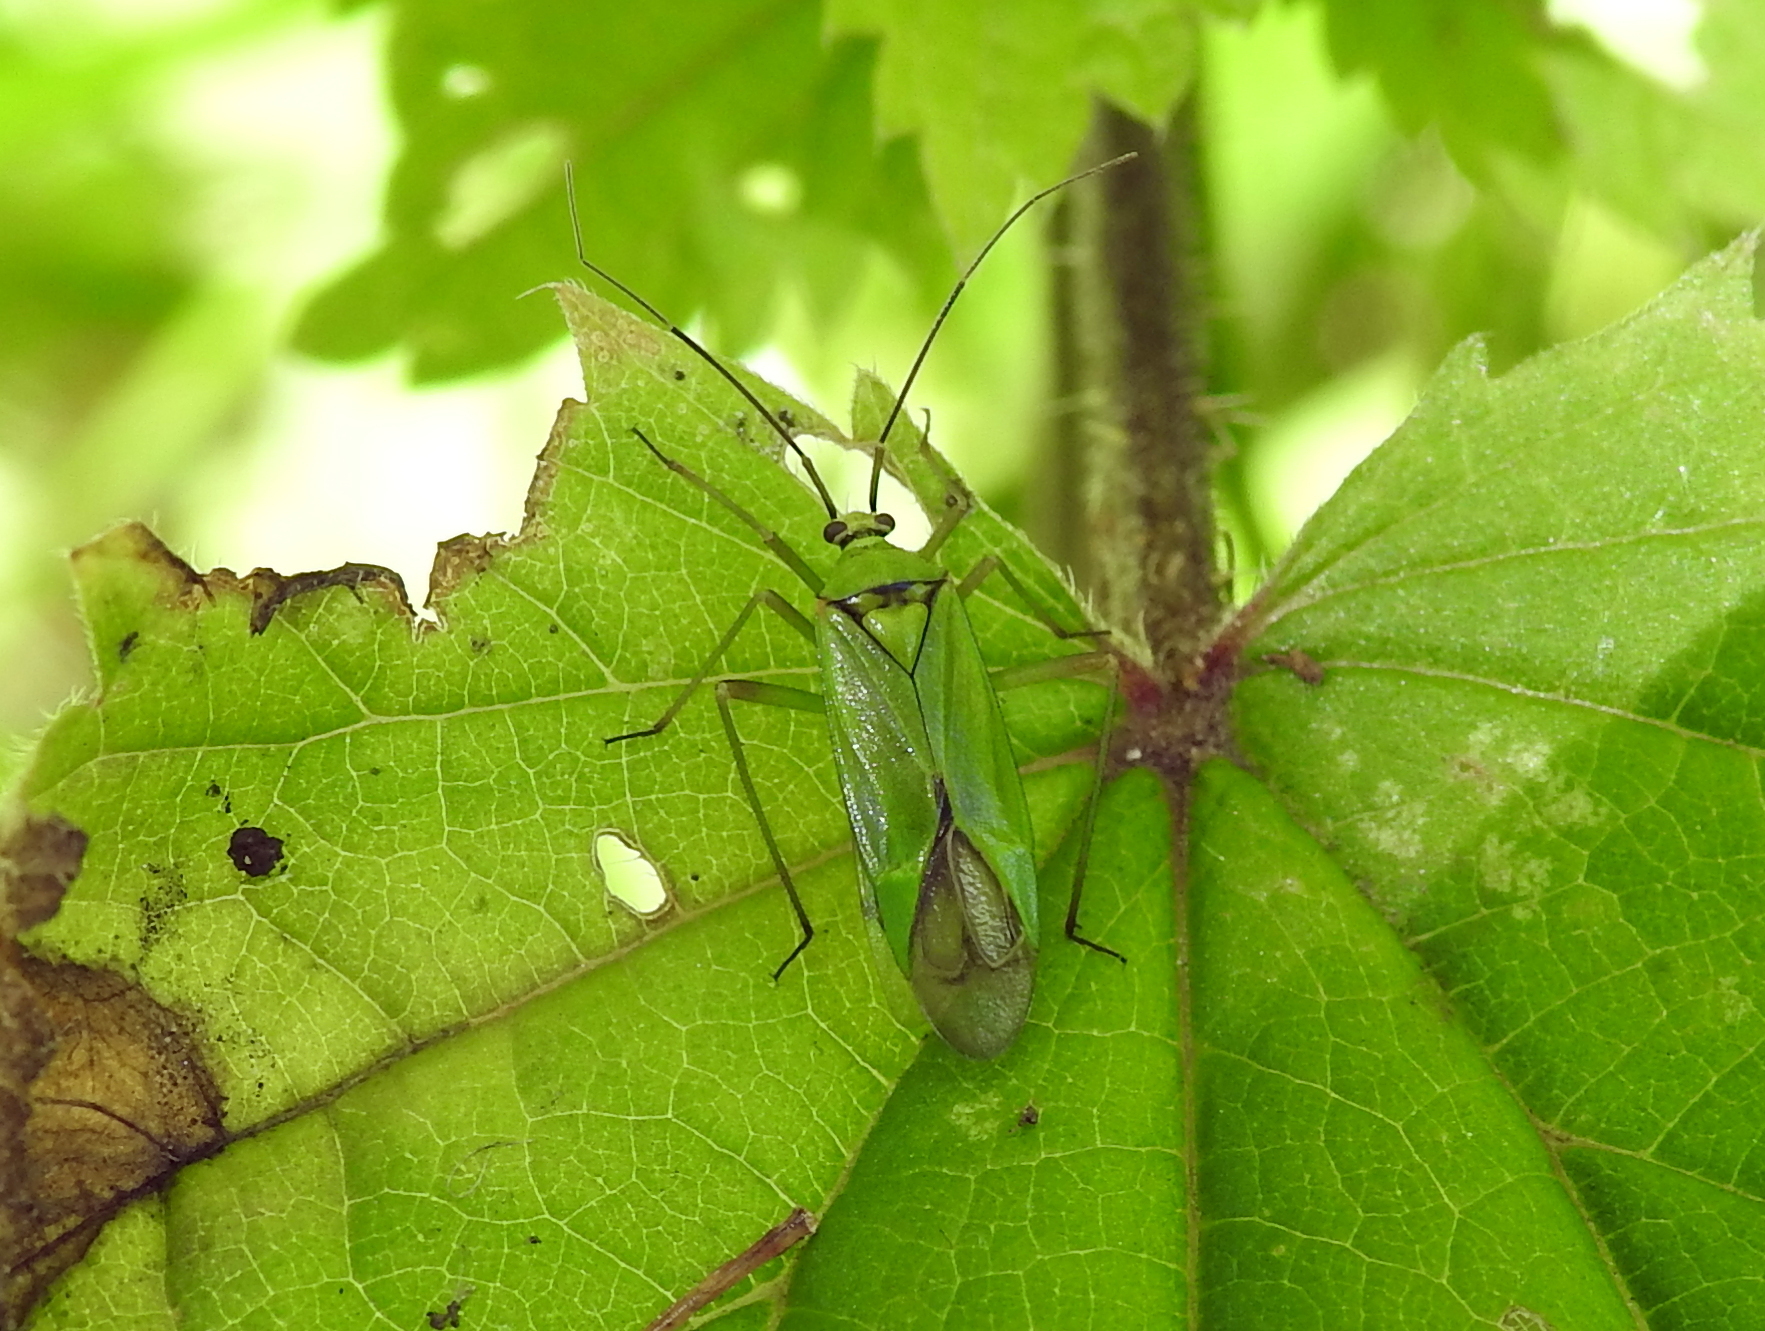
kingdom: Animalia
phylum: Arthropoda
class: Insecta
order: Hemiptera
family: Miridae
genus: Calocoris
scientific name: Calocoris alpestris
